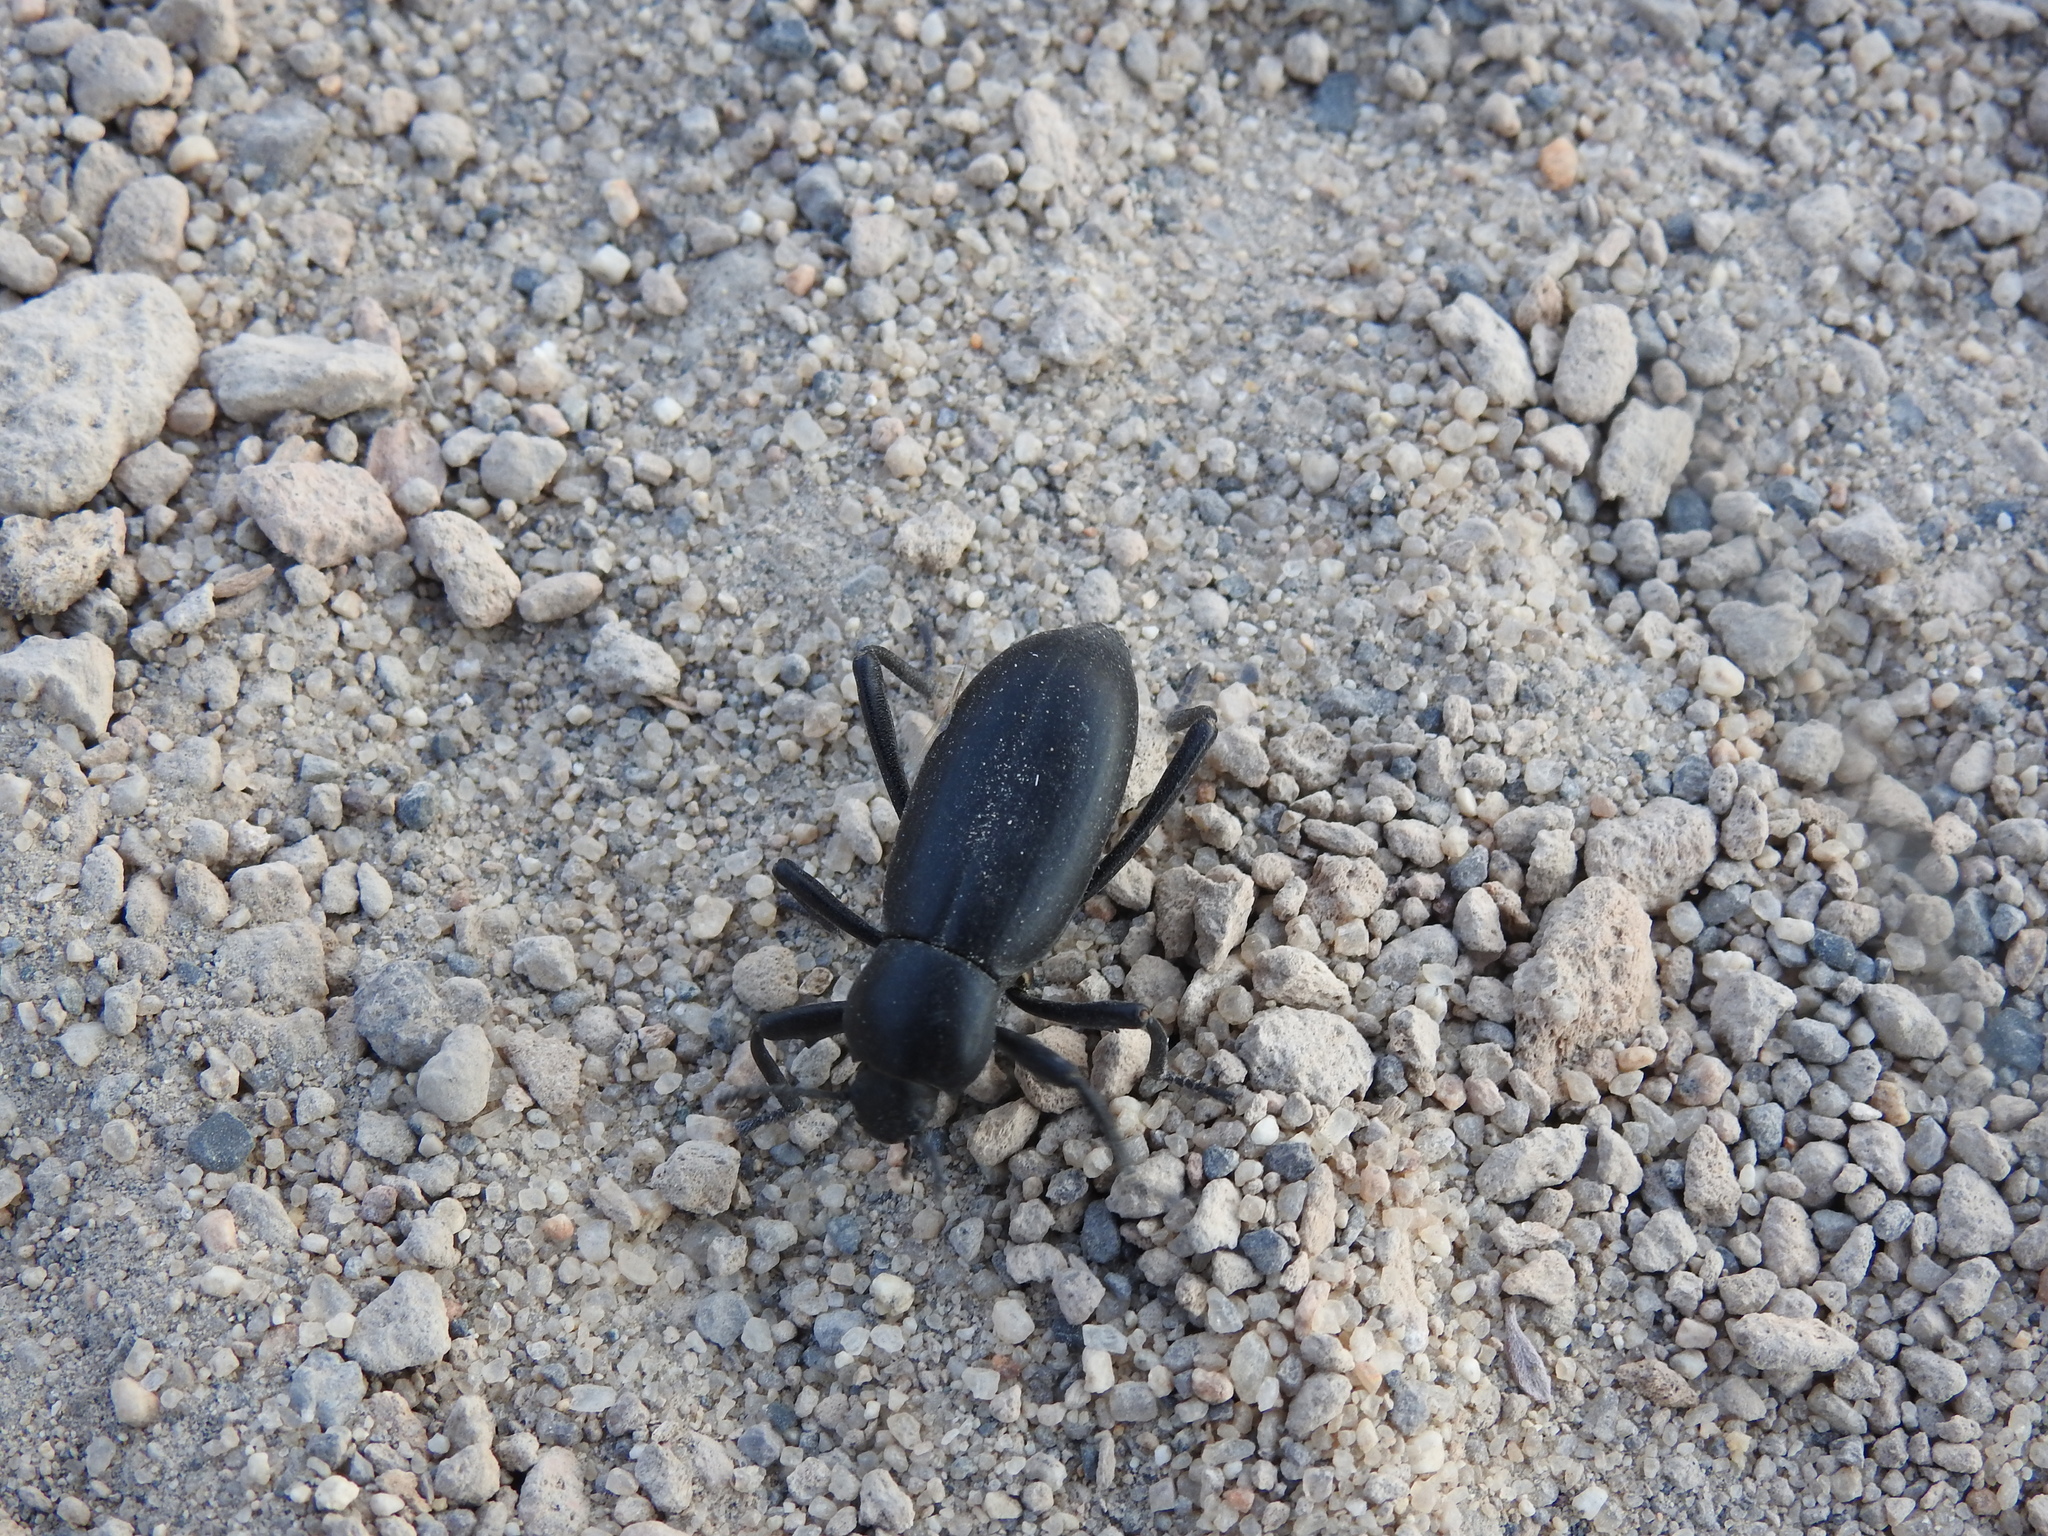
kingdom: Animalia
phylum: Arthropoda
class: Insecta
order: Coleoptera
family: Tenebrionidae
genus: Eleodes
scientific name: Eleodes armata
